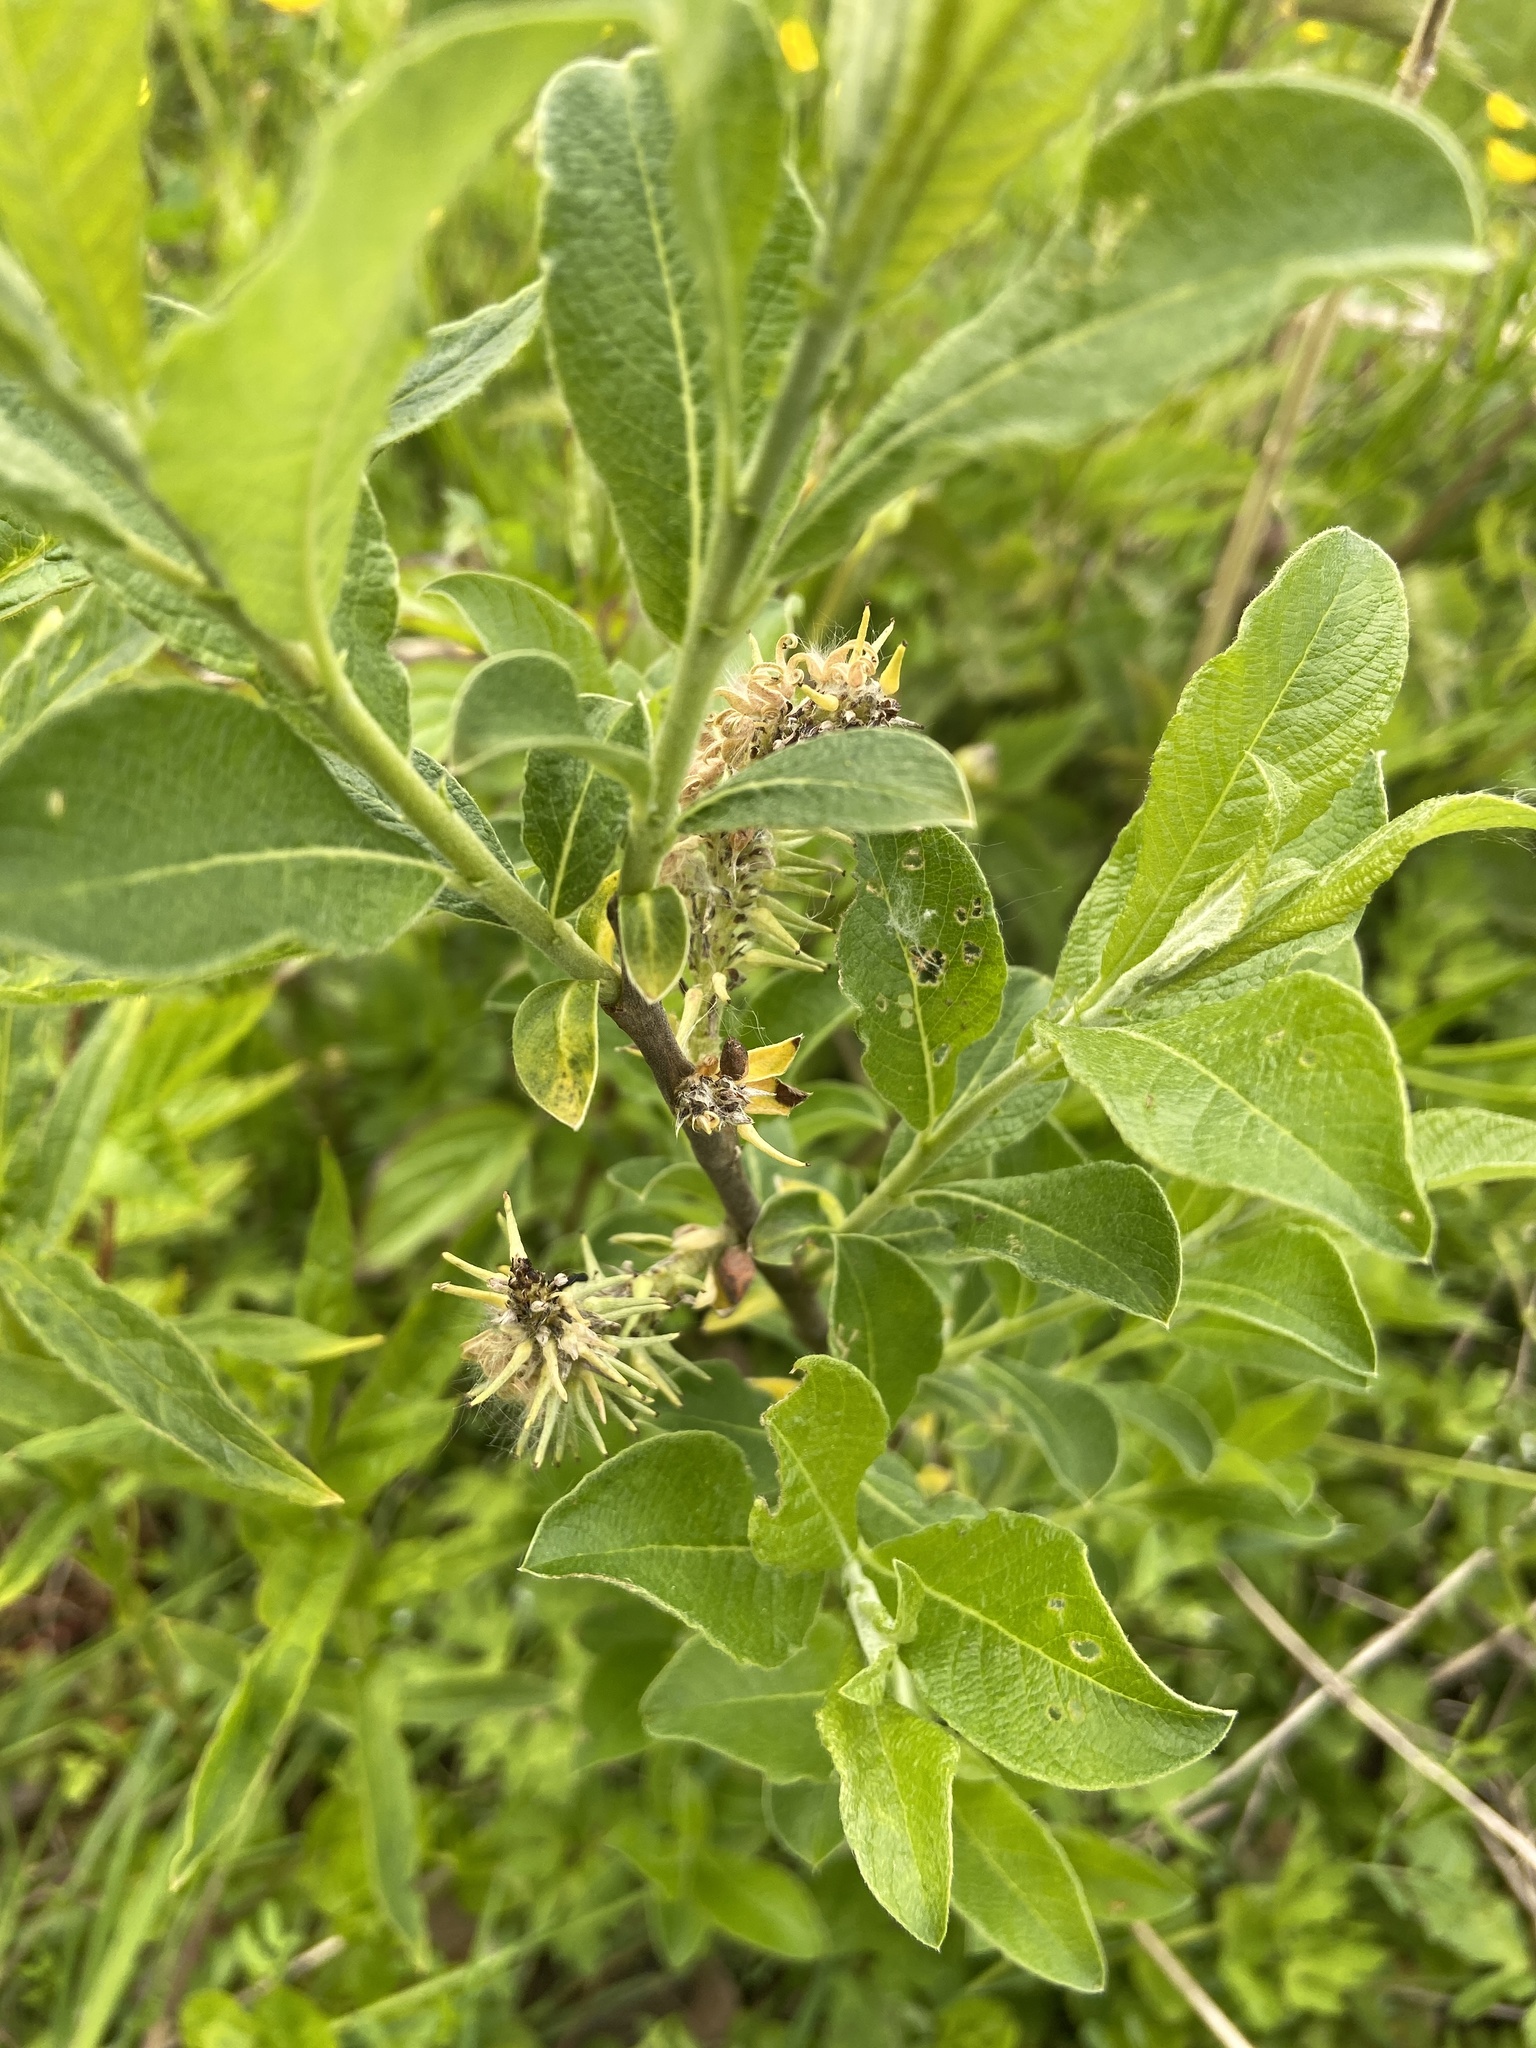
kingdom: Plantae
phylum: Tracheophyta
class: Magnoliopsida
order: Malpighiales
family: Salicaceae
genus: Salix
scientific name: Salix cinerea
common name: Common sallow
